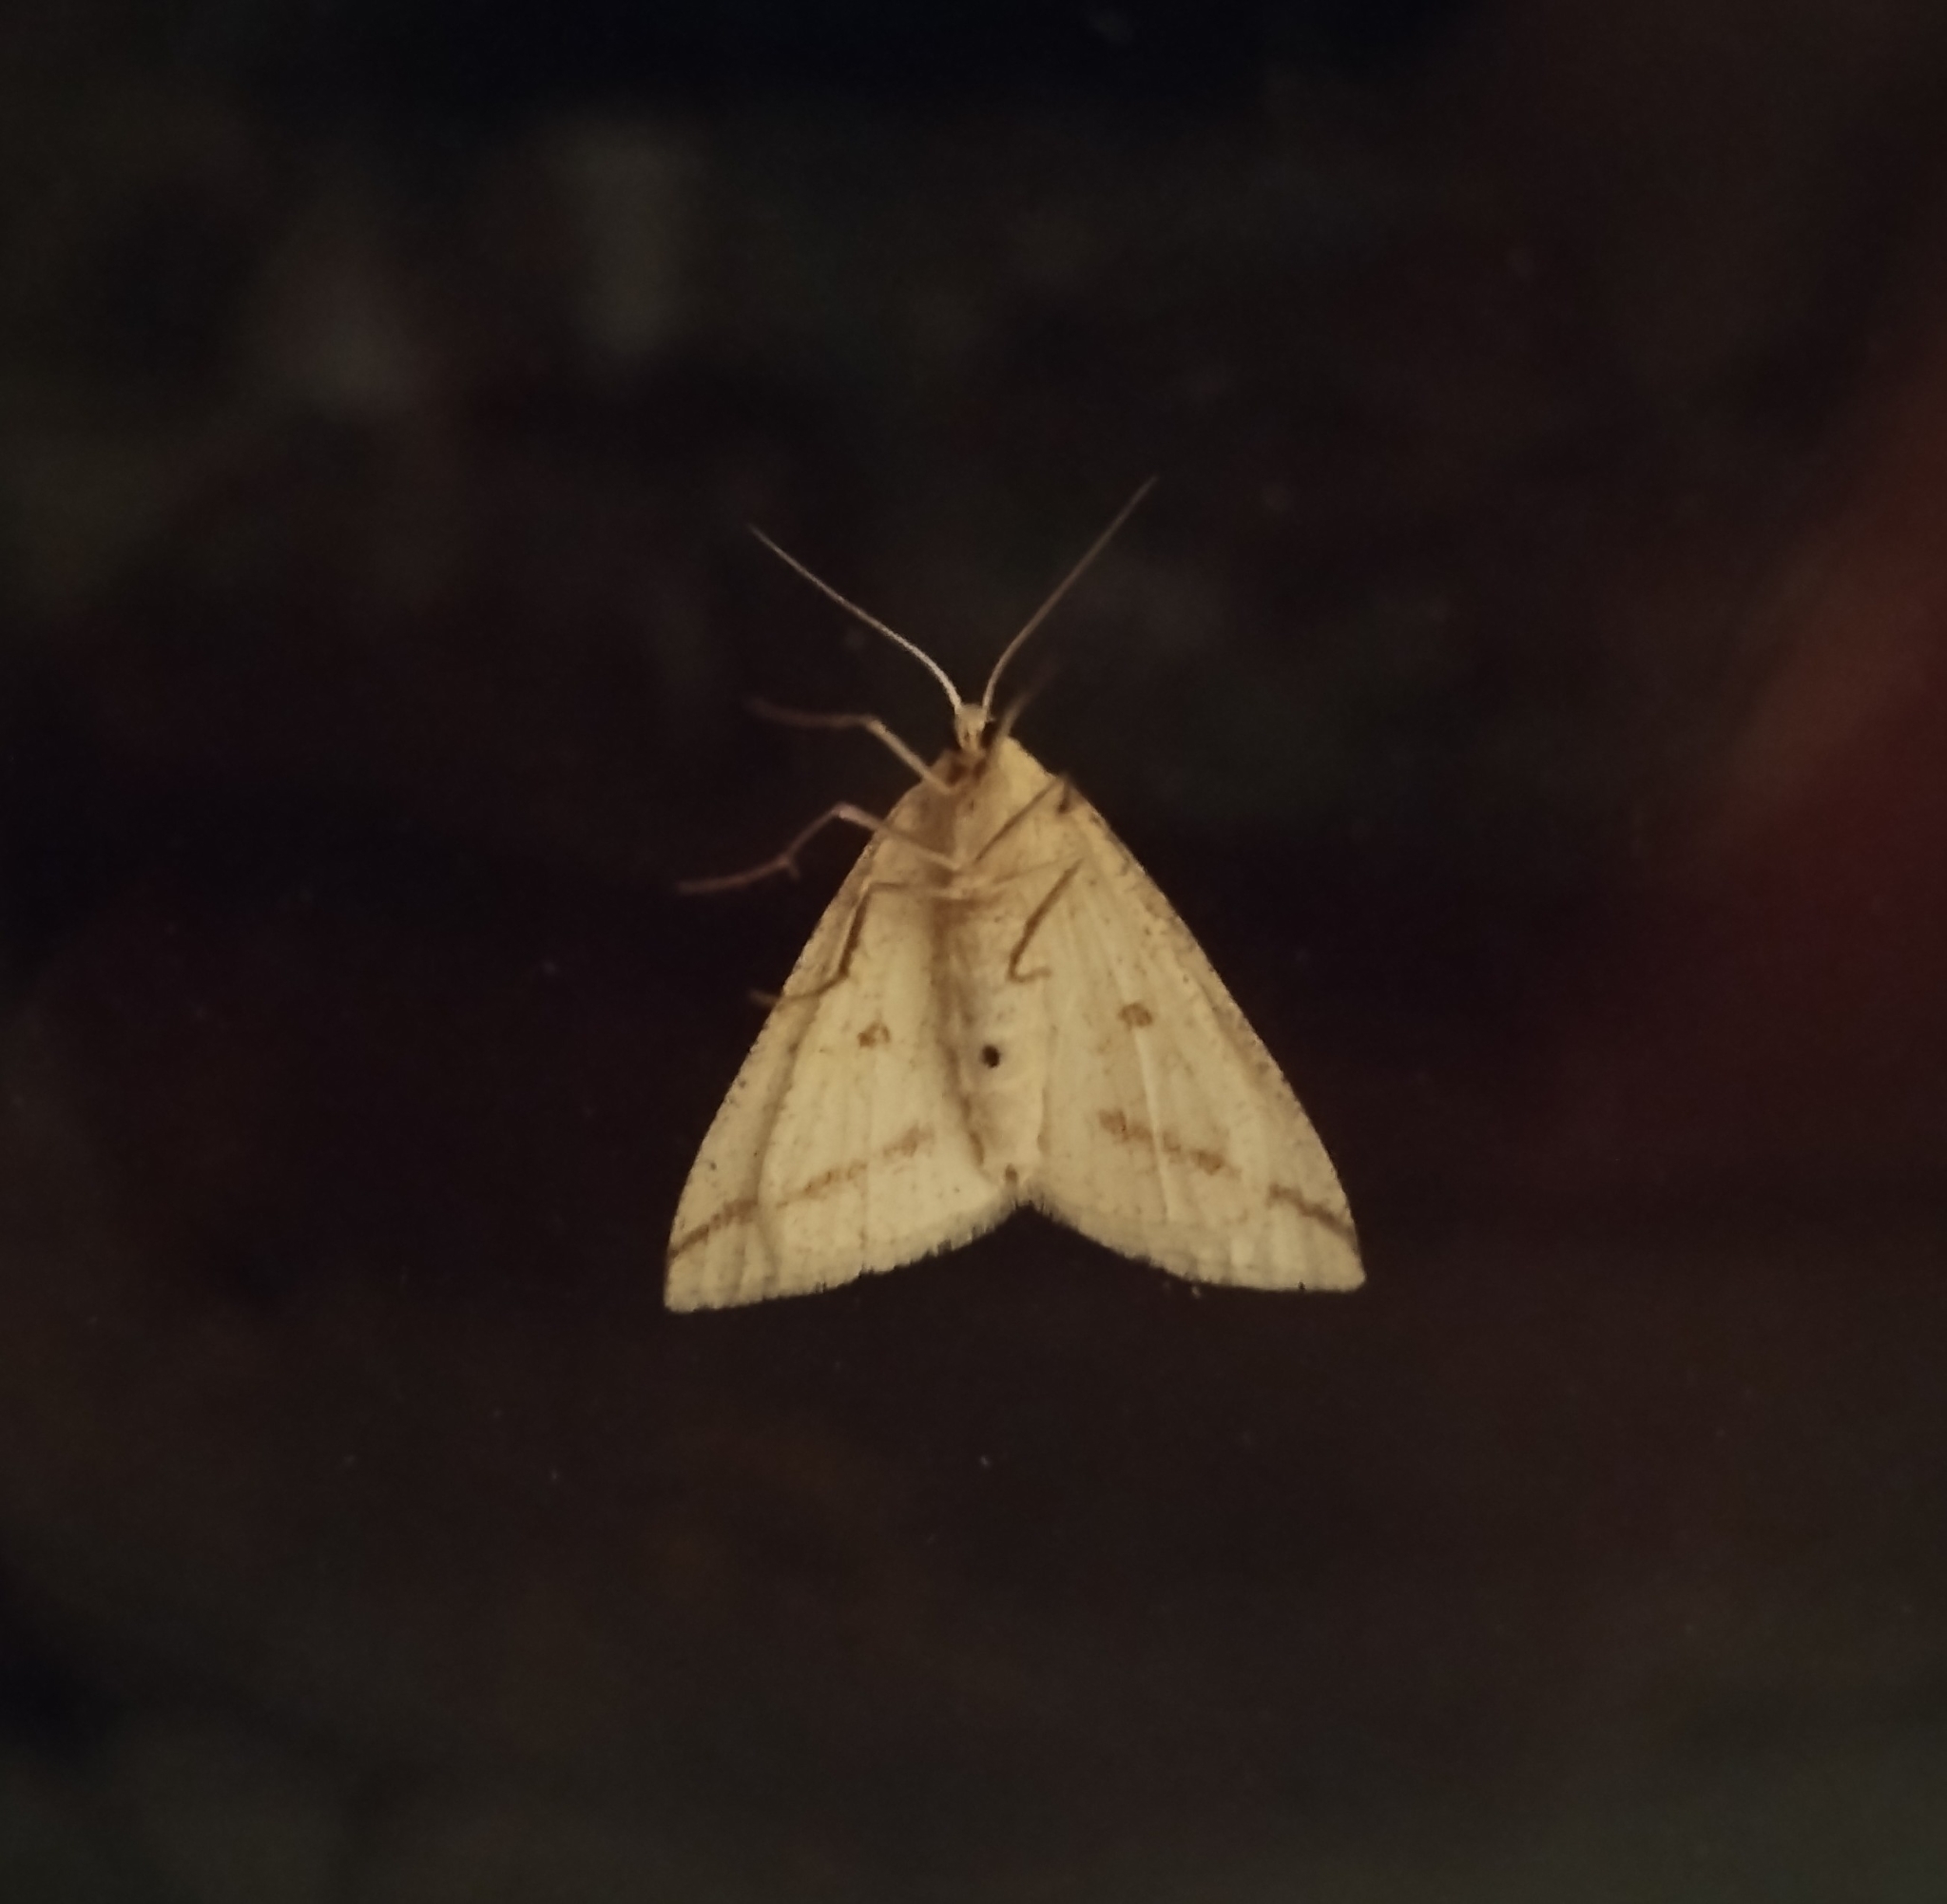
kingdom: Animalia
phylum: Arthropoda
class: Insecta
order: Lepidoptera
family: Geometridae
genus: Aspitates
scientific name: Aspitates gilvaria
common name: Straw belle
